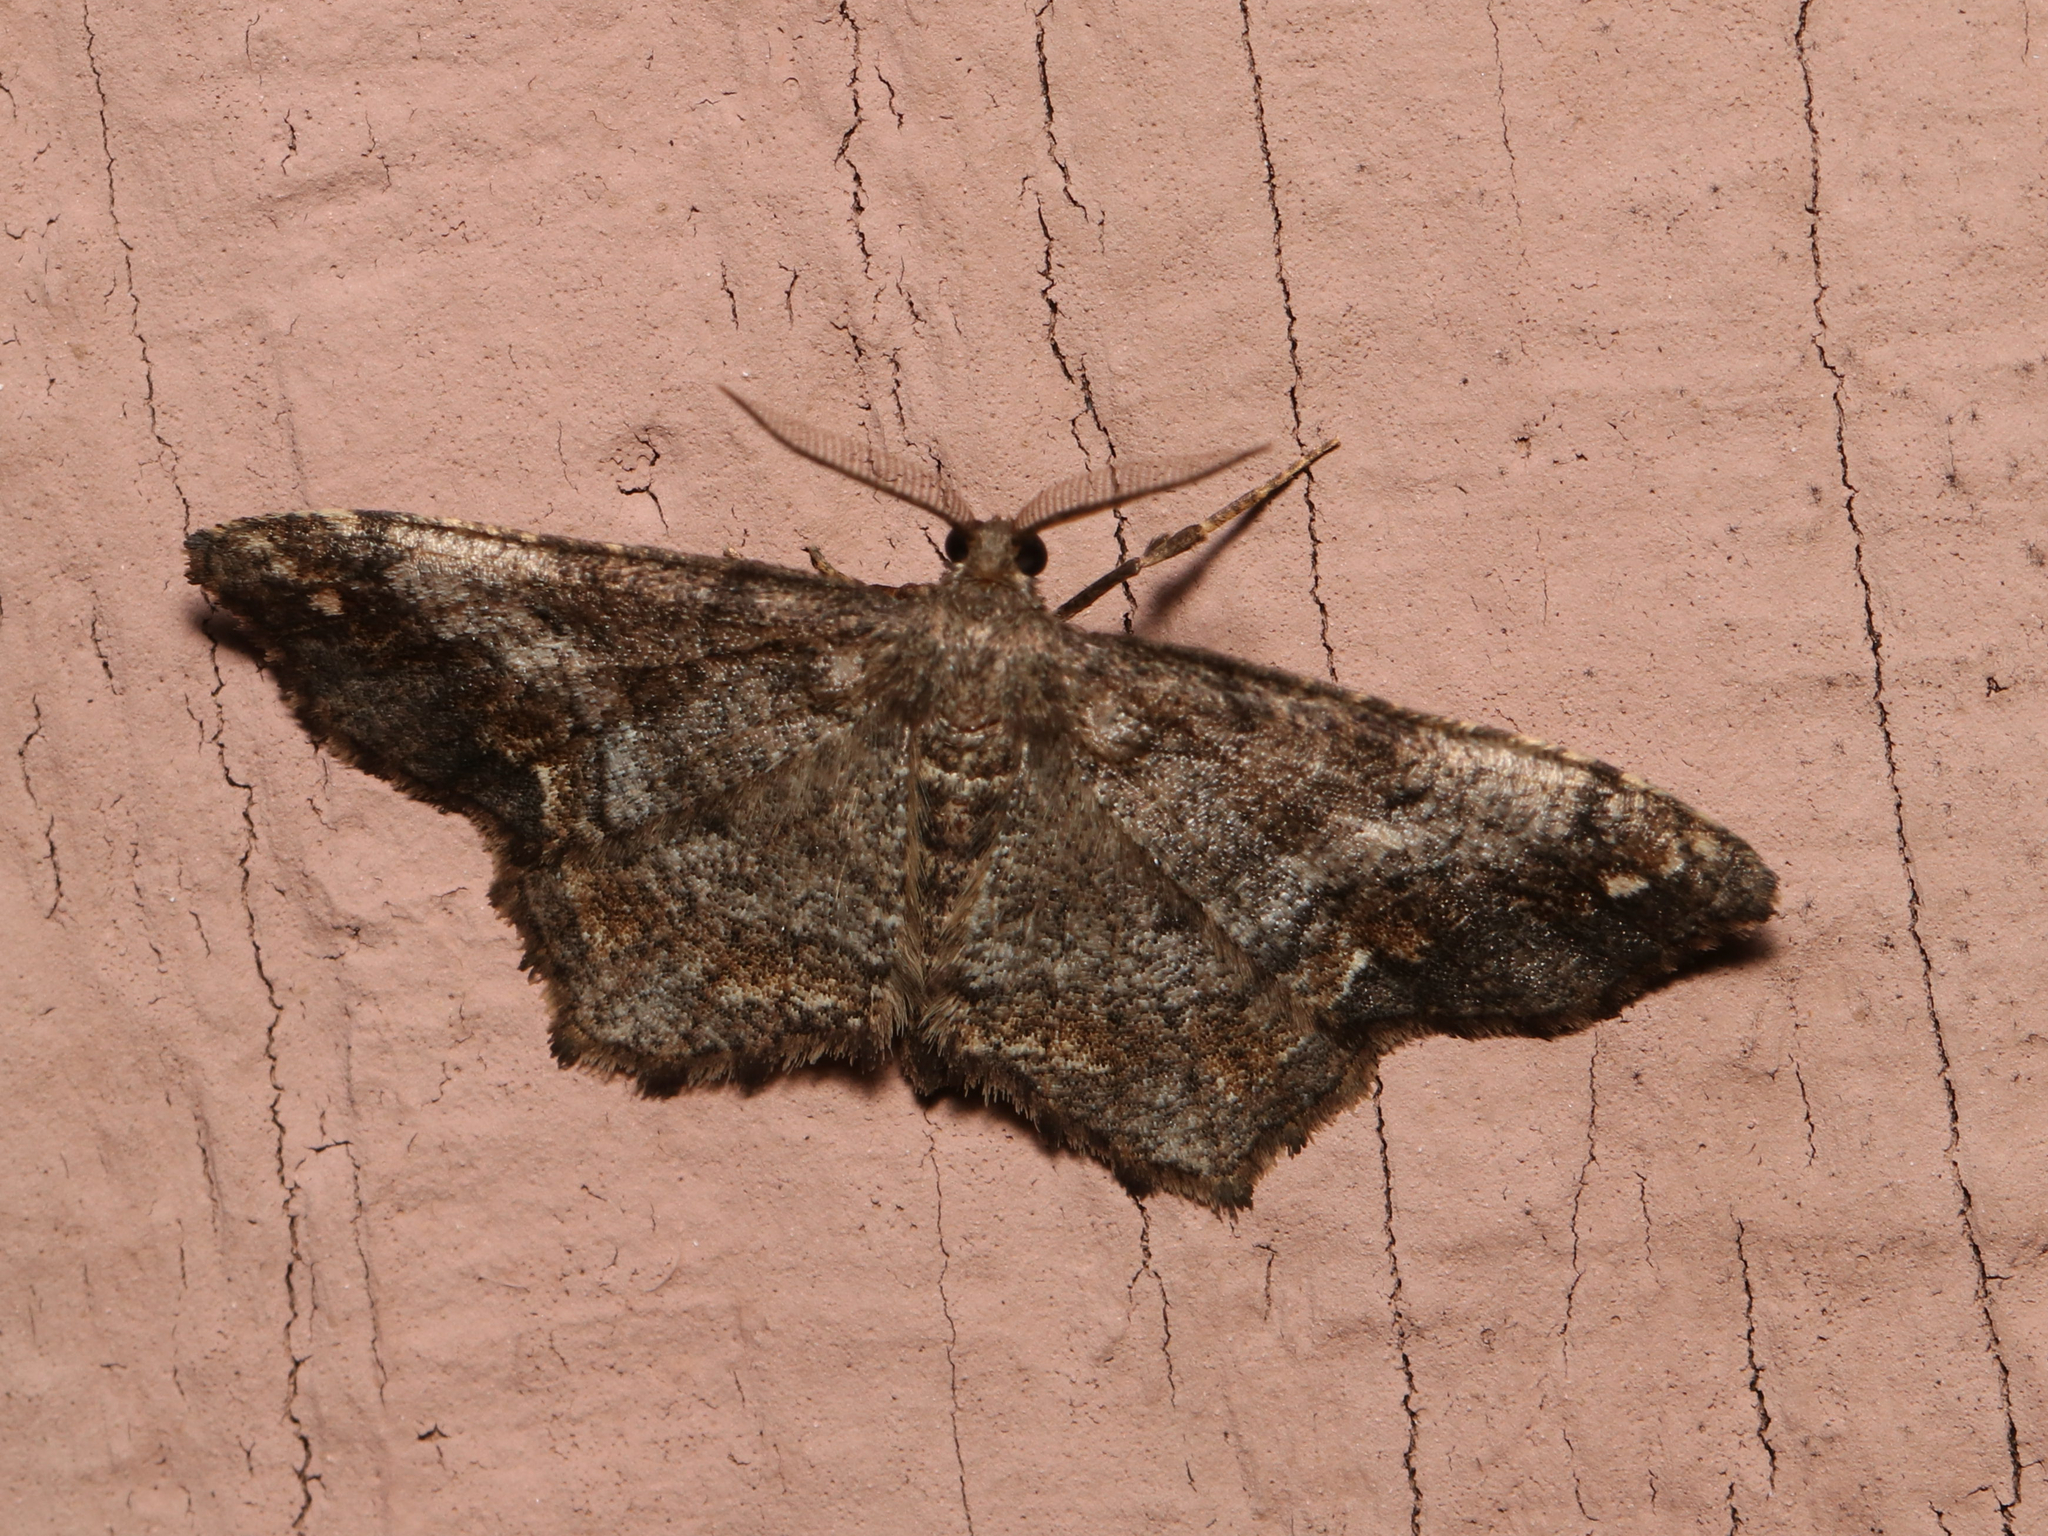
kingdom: Animalia
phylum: Arthropoda
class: Insecta
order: Lepidoptera
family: Geometridae
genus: Hypagyrtis
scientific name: Hypagyrtis esther
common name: Esther moth
